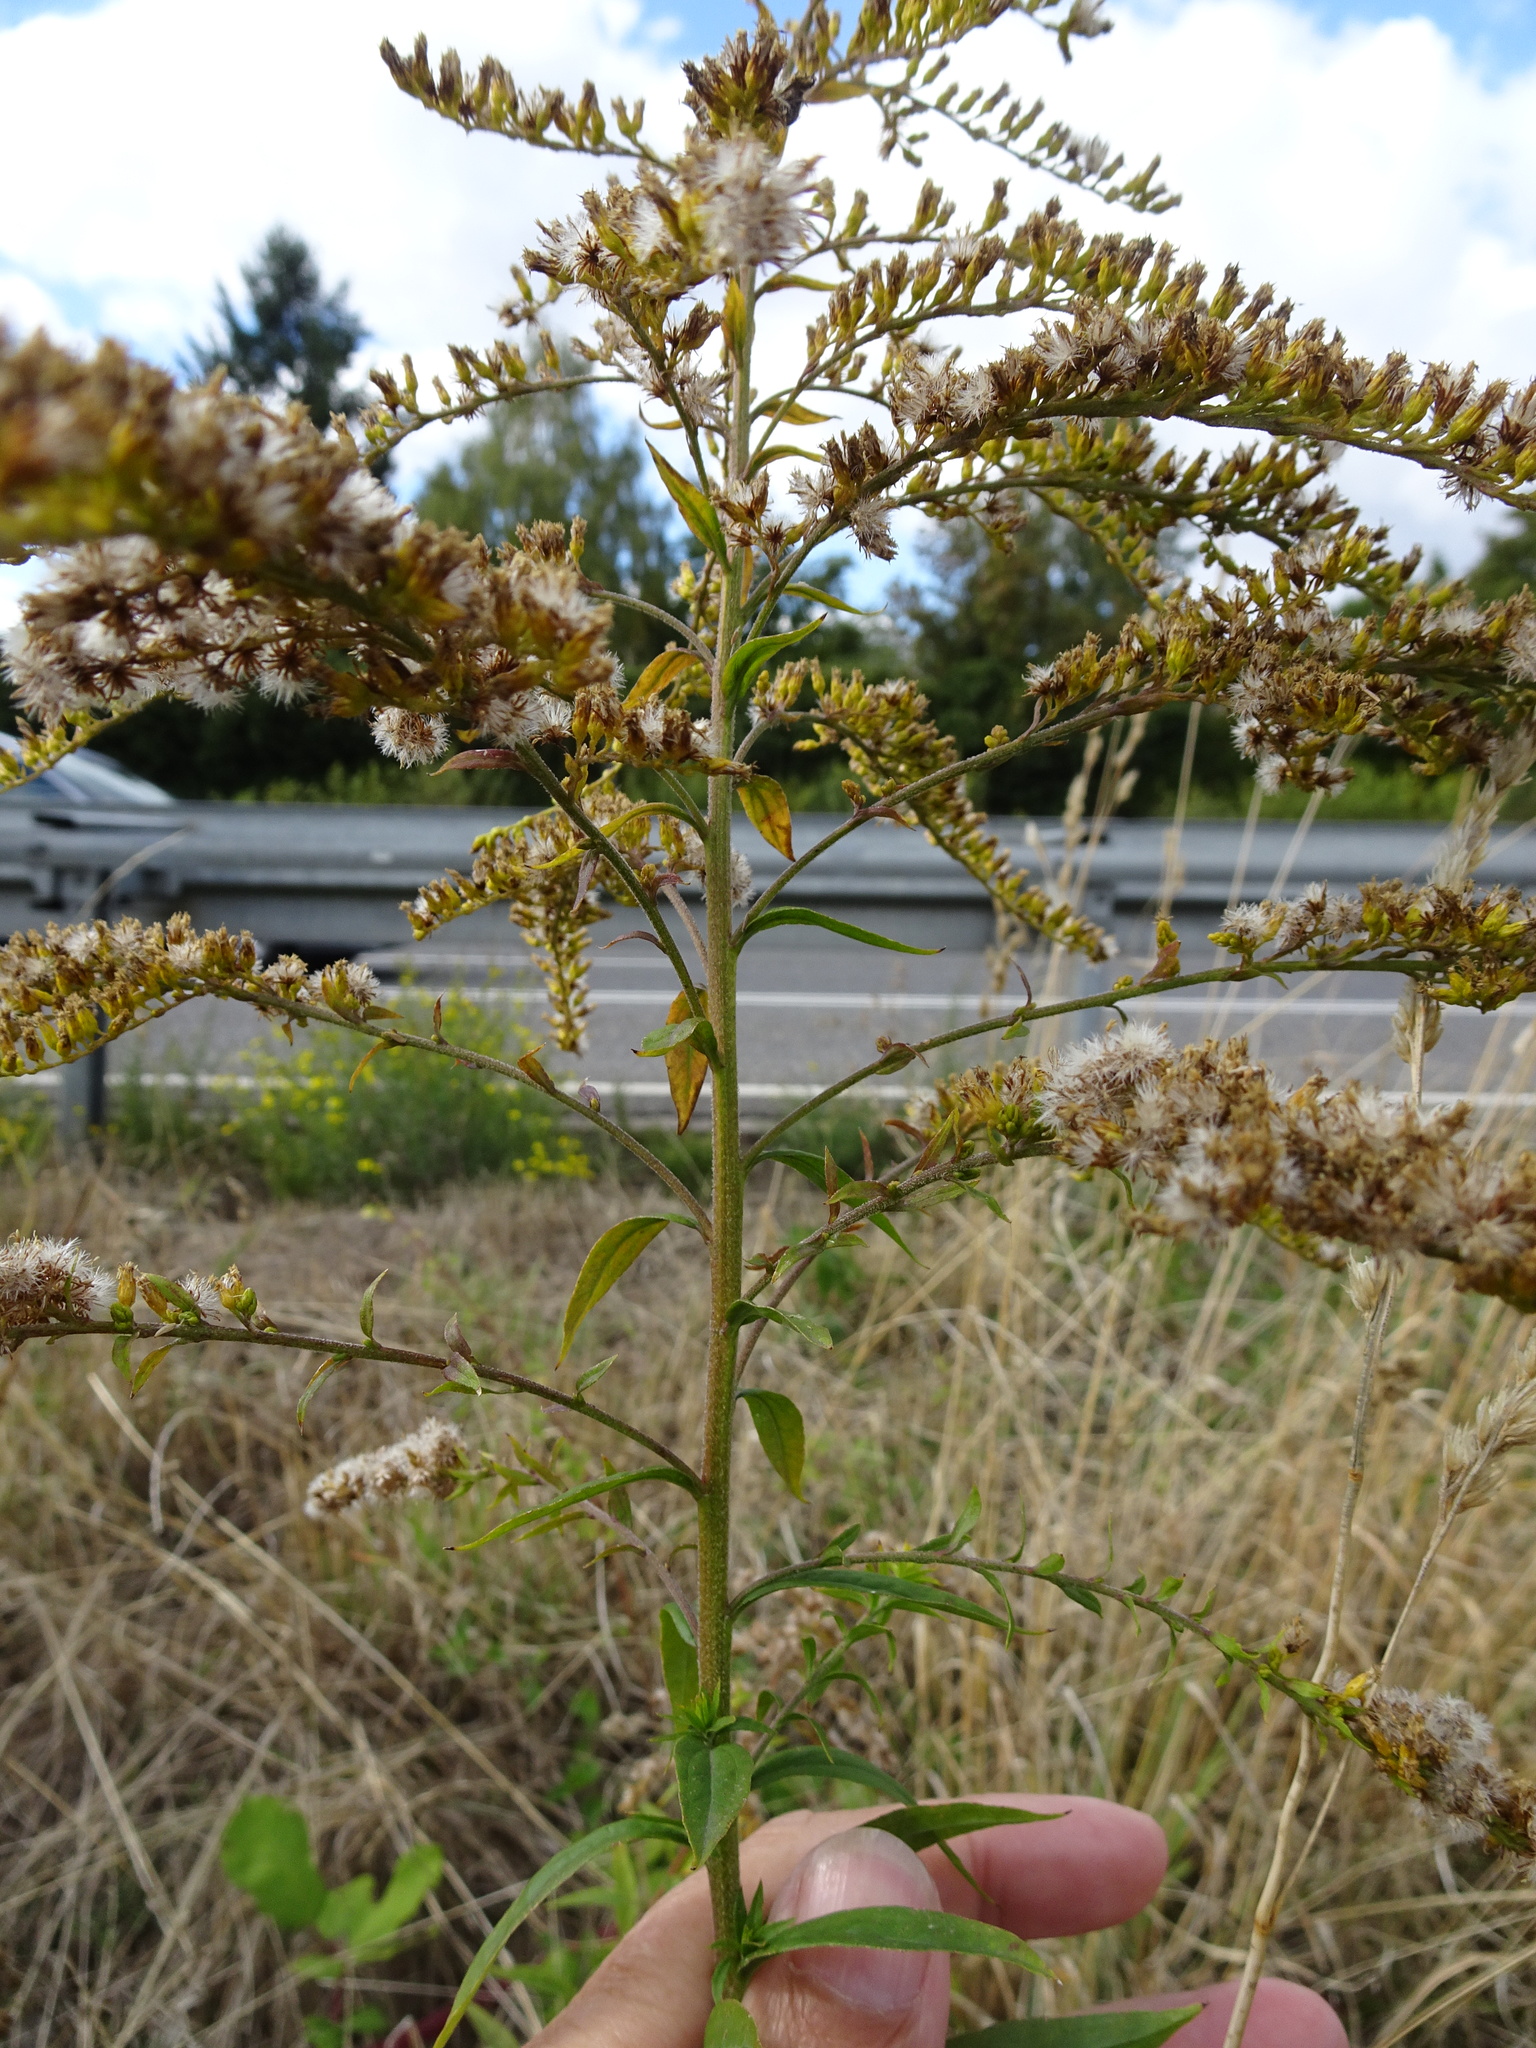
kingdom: Plantae
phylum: Tracheophyta
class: Magnoliopsida
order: Asterales
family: Asteraceae
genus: Solidago
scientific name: Solidago canadensis
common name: Canada goldenrod
